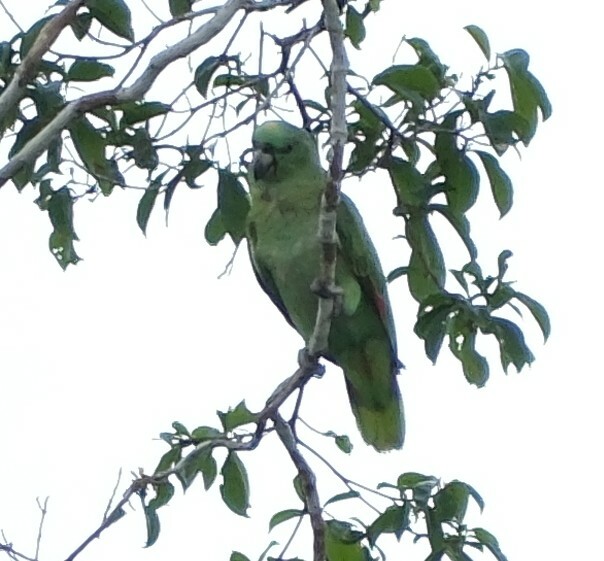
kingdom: Animalia
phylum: Chordata
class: Aves
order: Psittaciformes
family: Psittacidae
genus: Amazona
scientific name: Amazona ochrocephala
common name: Yellow-crowned amazon
